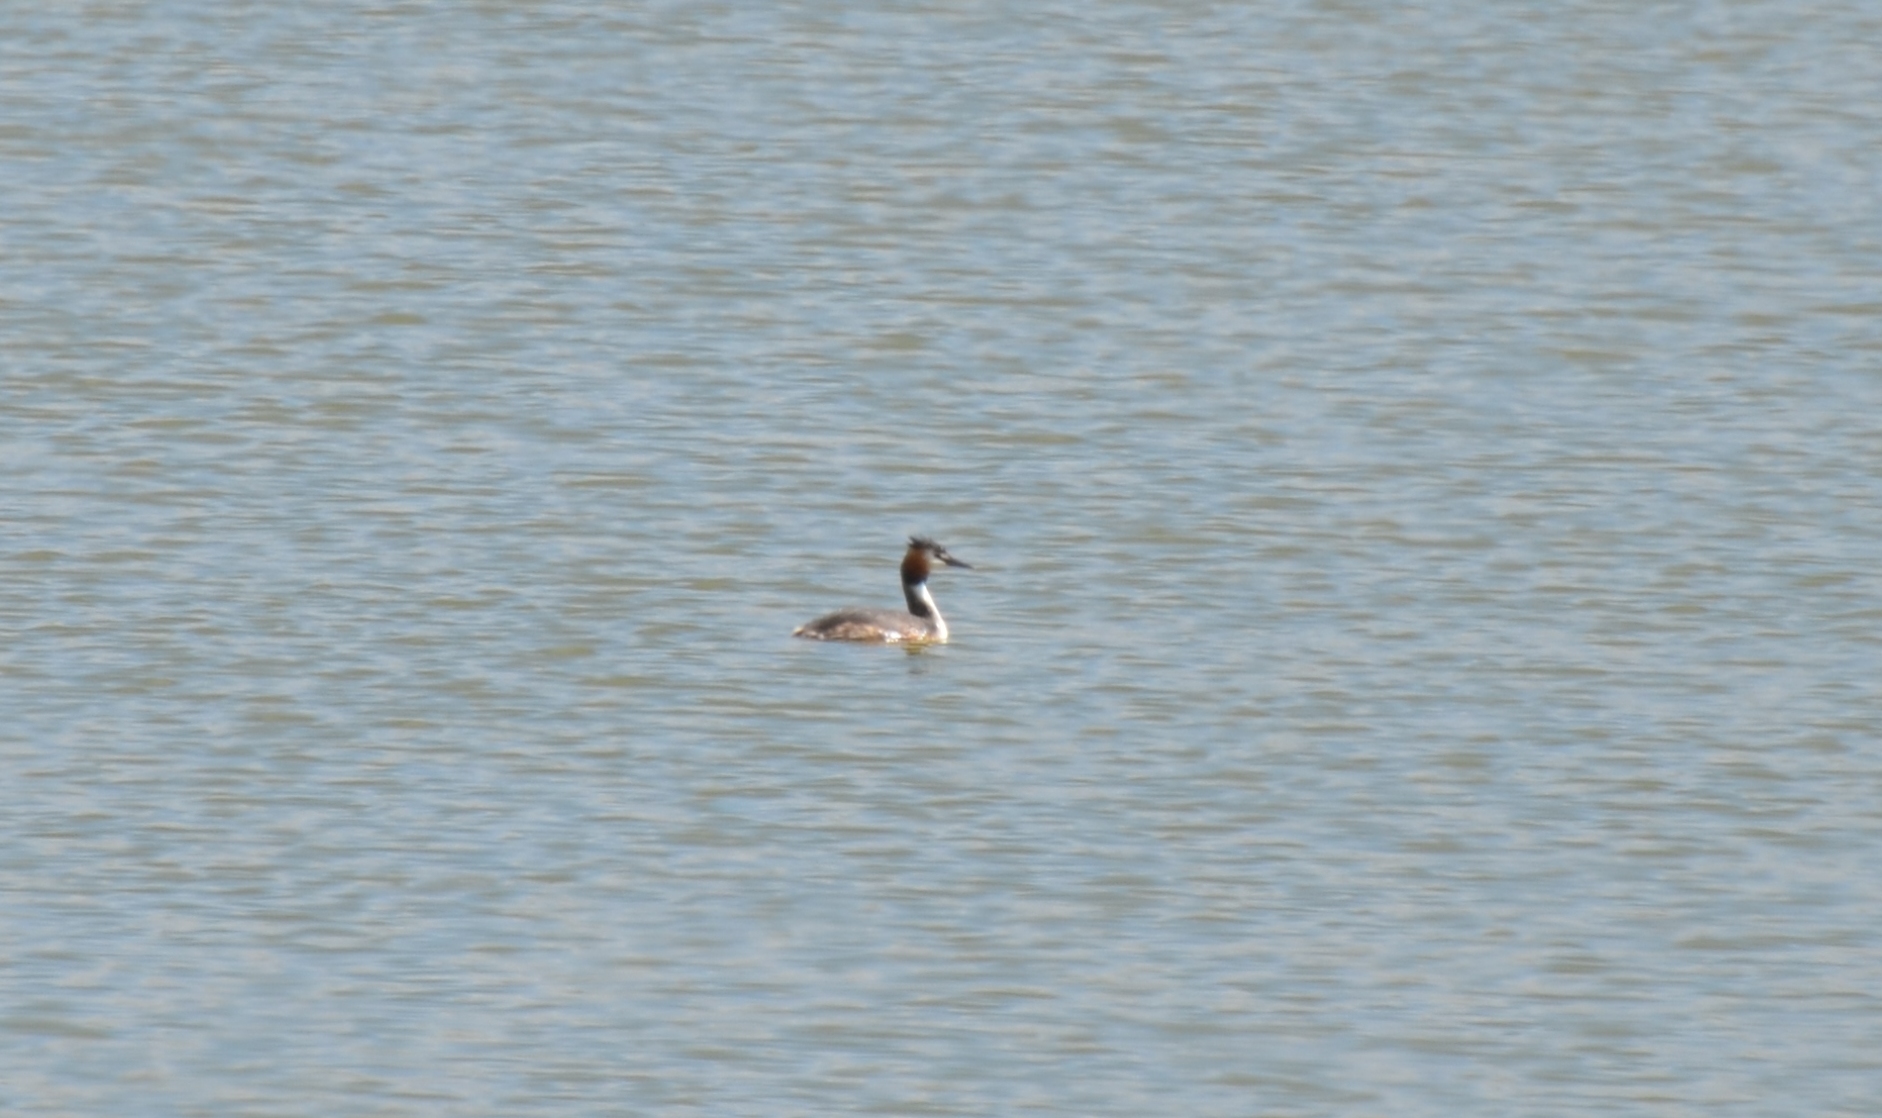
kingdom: Animalia
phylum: Chordata
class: Aves
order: Podicipediformes
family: Podicipedidae
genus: Podiceps
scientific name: Podiceps cristatus
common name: Great crested grebe
